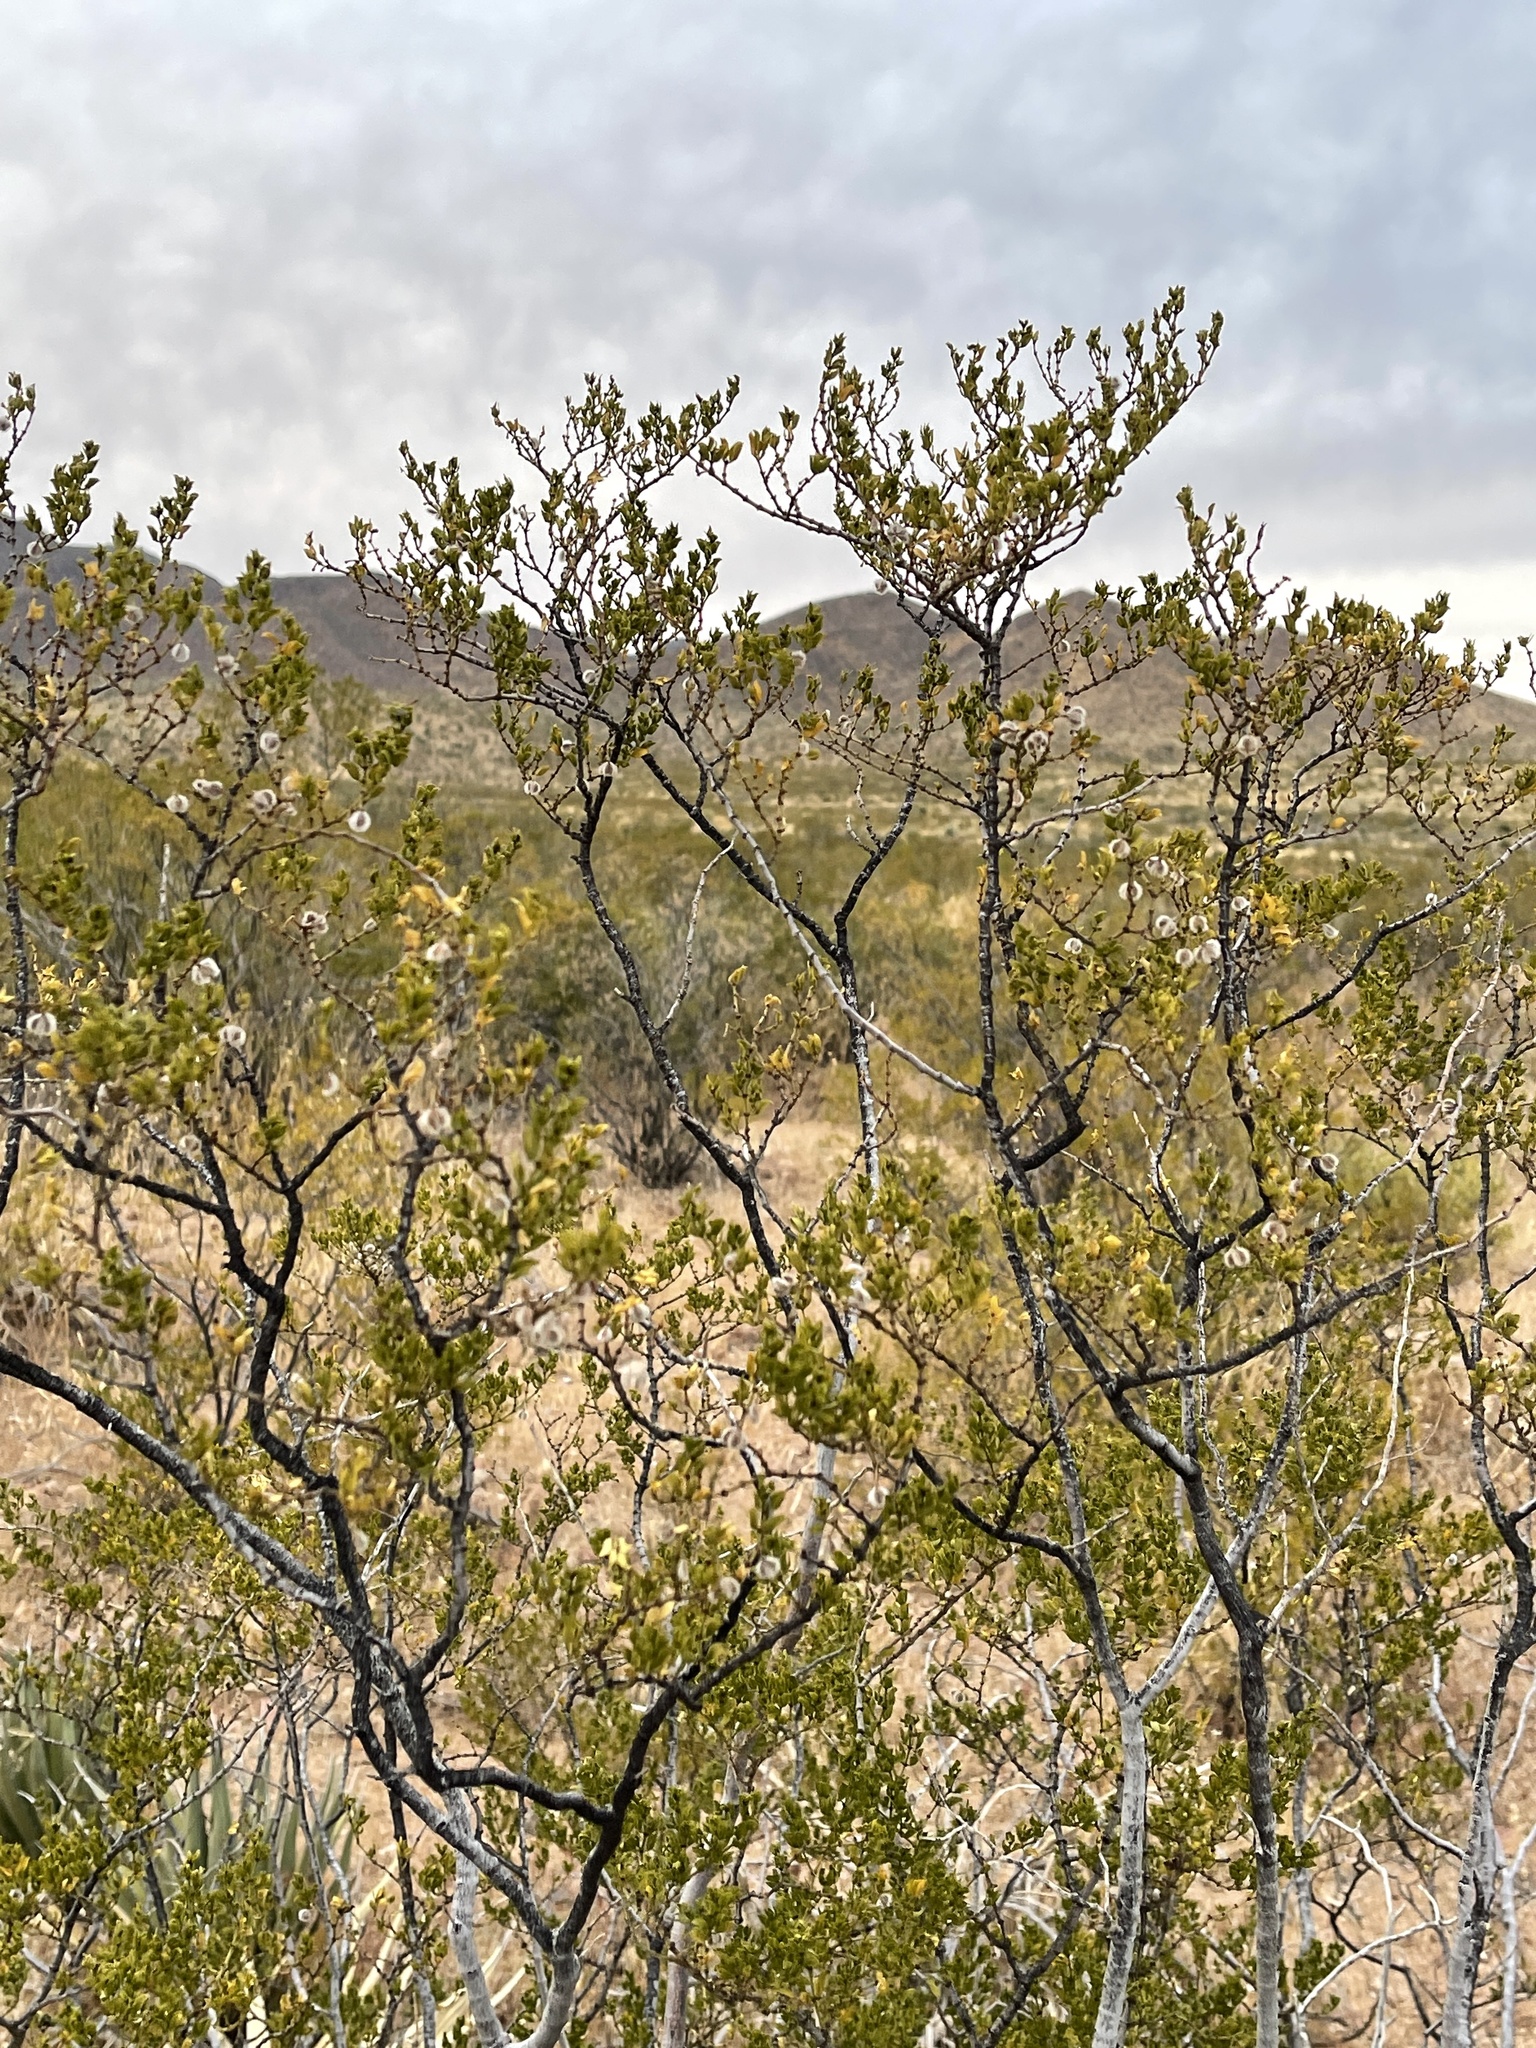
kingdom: Plantae
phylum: Tracheophyta
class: Magnoliopsida
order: Zygophyllales
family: Zygophyllaceae
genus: Larrea
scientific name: Larrea tridentata
